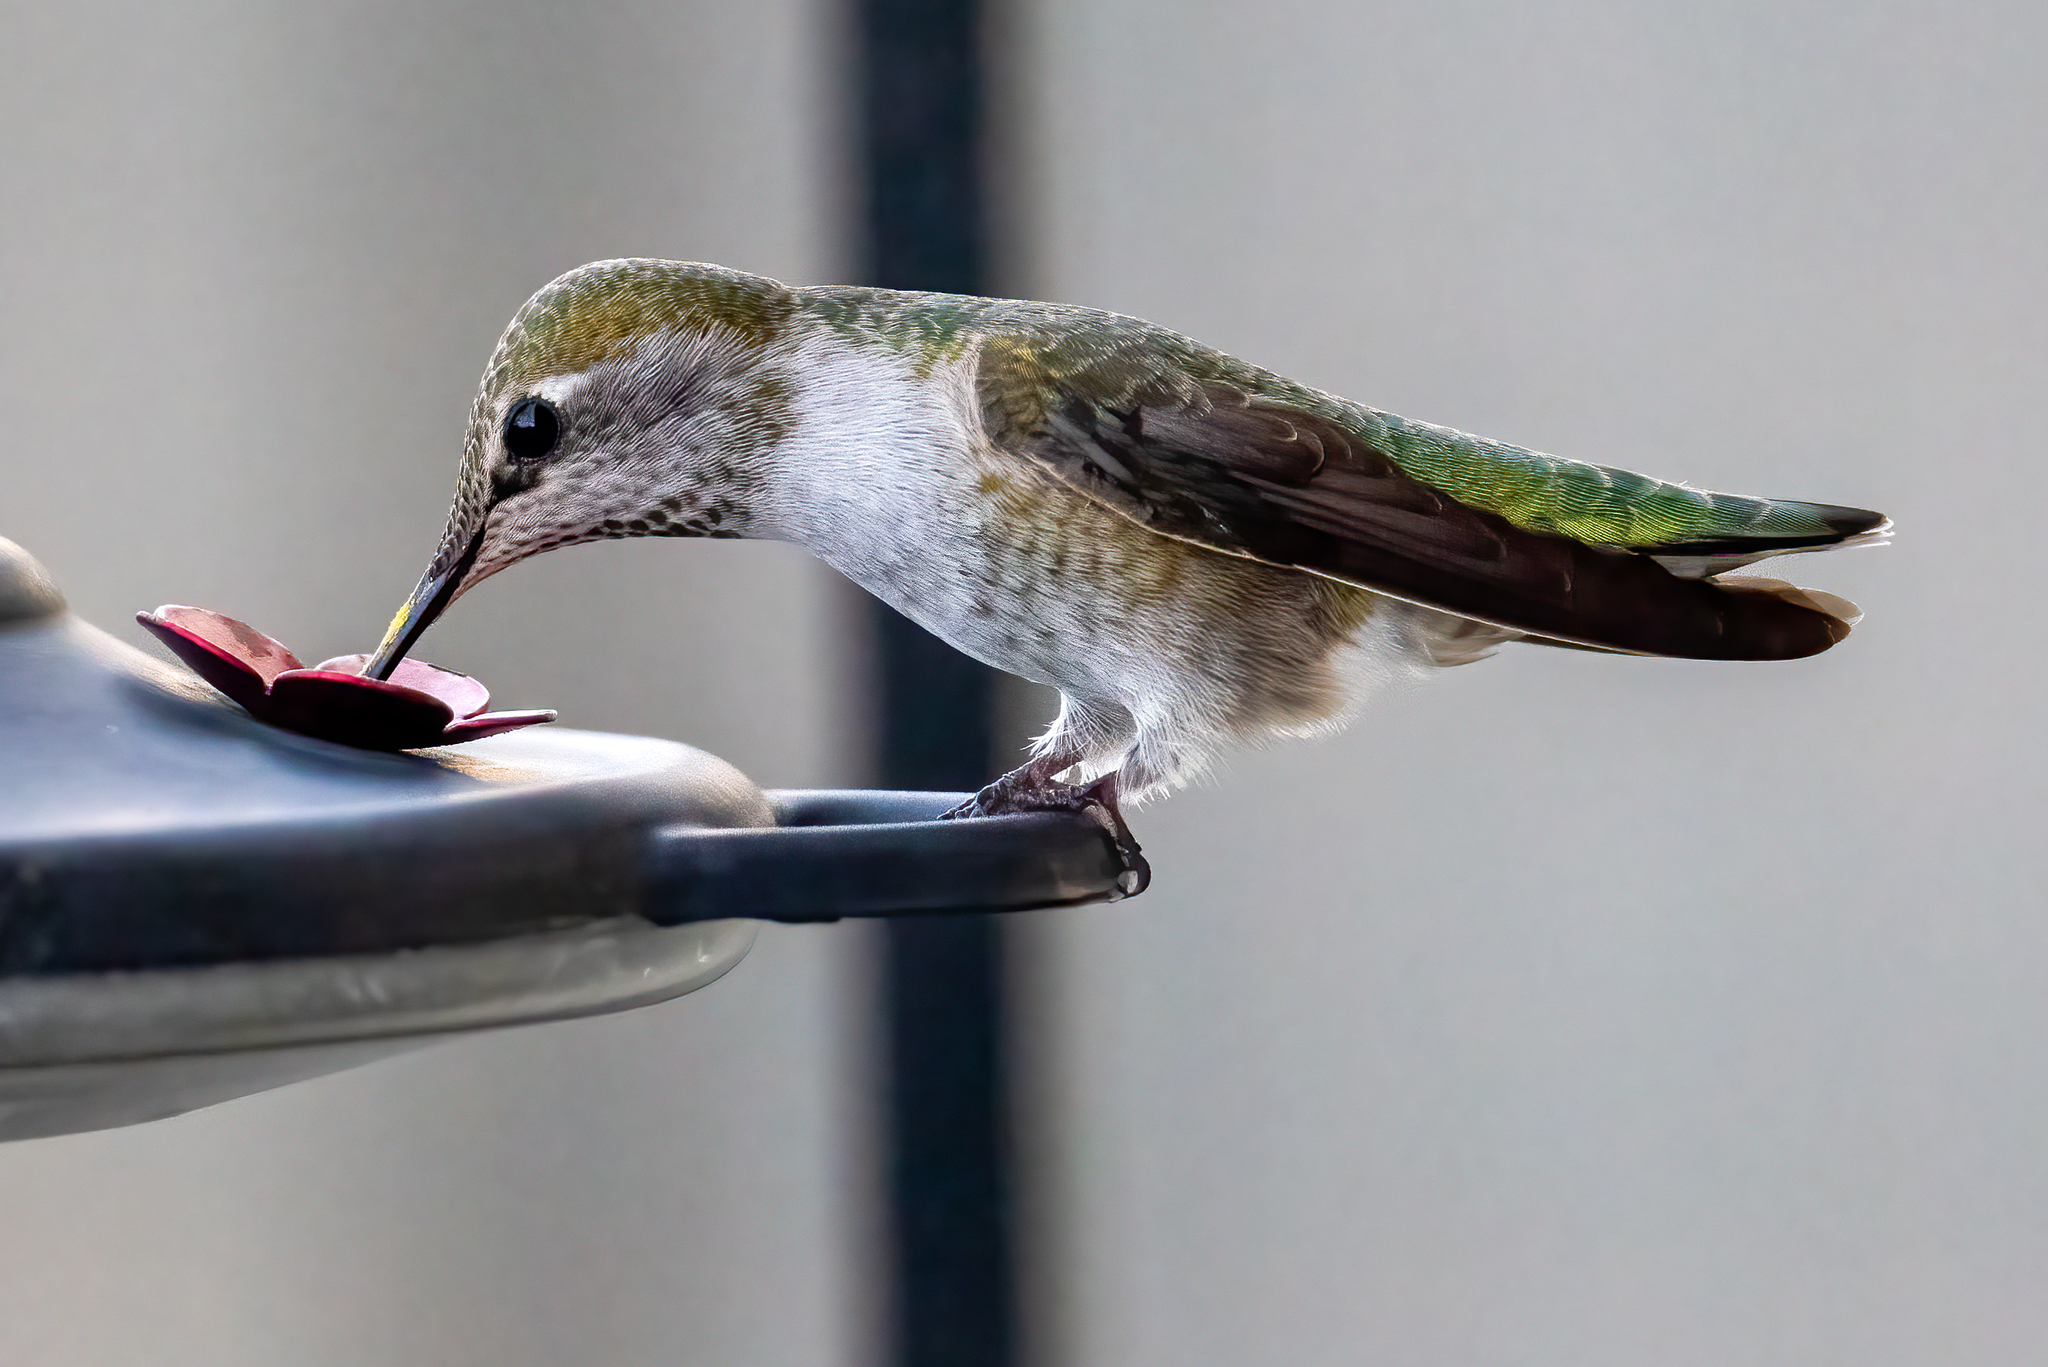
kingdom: Animalia
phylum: Chordata
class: Aves
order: Apodiformes
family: Trochilidae
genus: Calypte
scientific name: Calypte anna
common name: Anna's hummingbird
